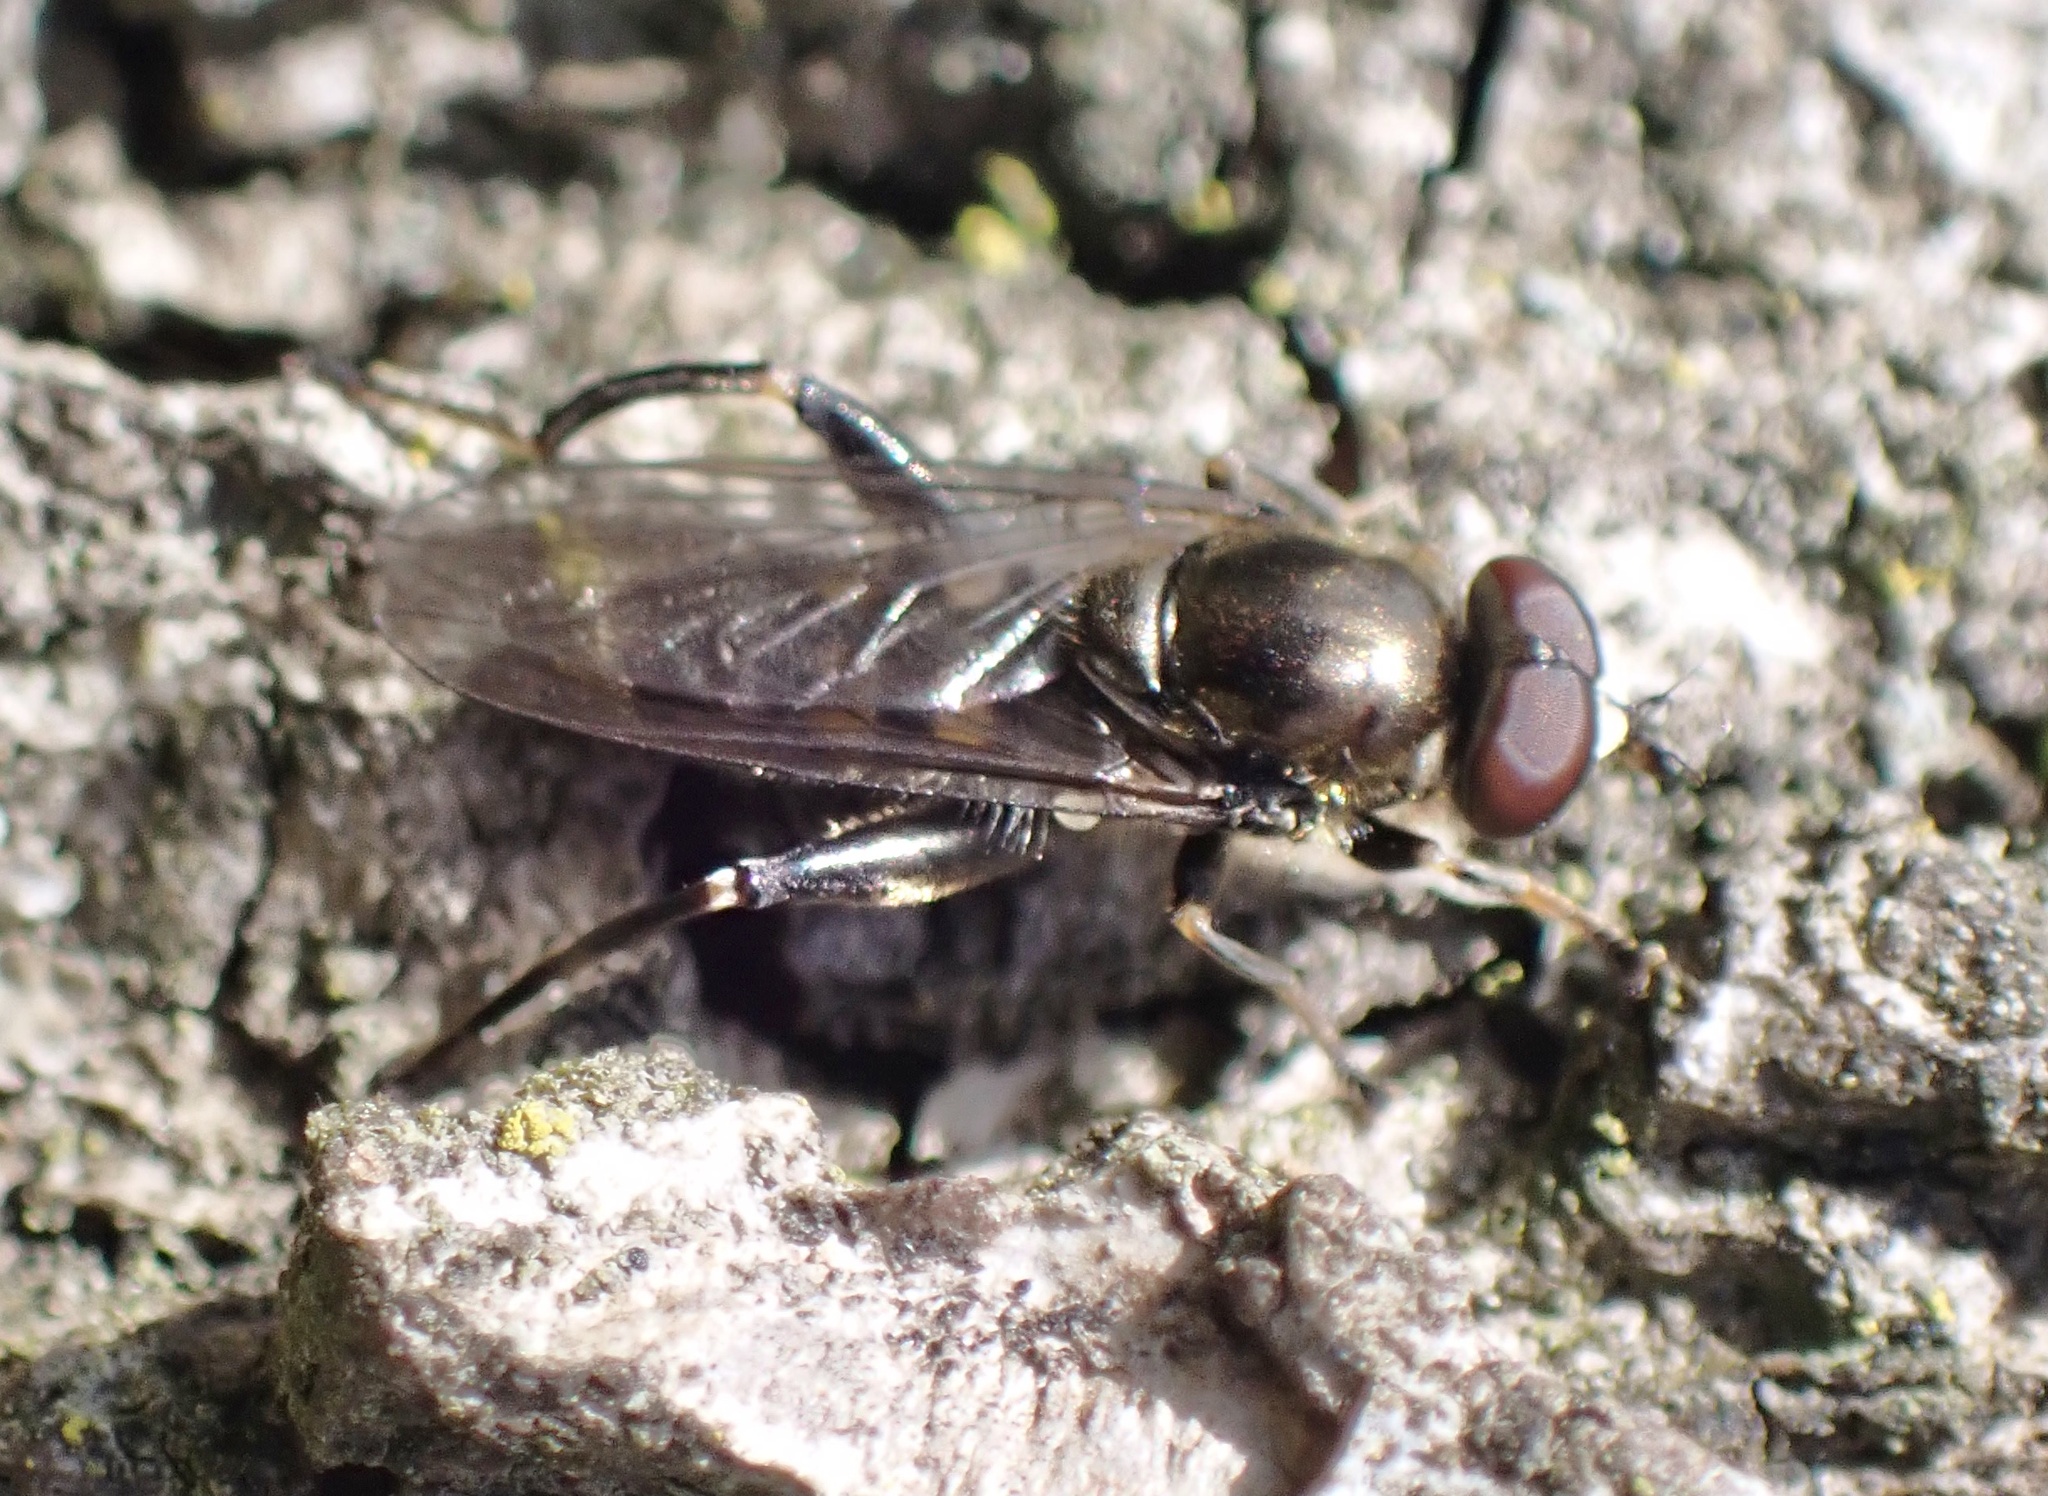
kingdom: Animalia
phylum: Arthropoda
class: Insecta
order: Diptera
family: Syrphidae
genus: Chalcosyrphus
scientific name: Chalcosyrphus nemorum
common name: Dusky-banded forest fly
